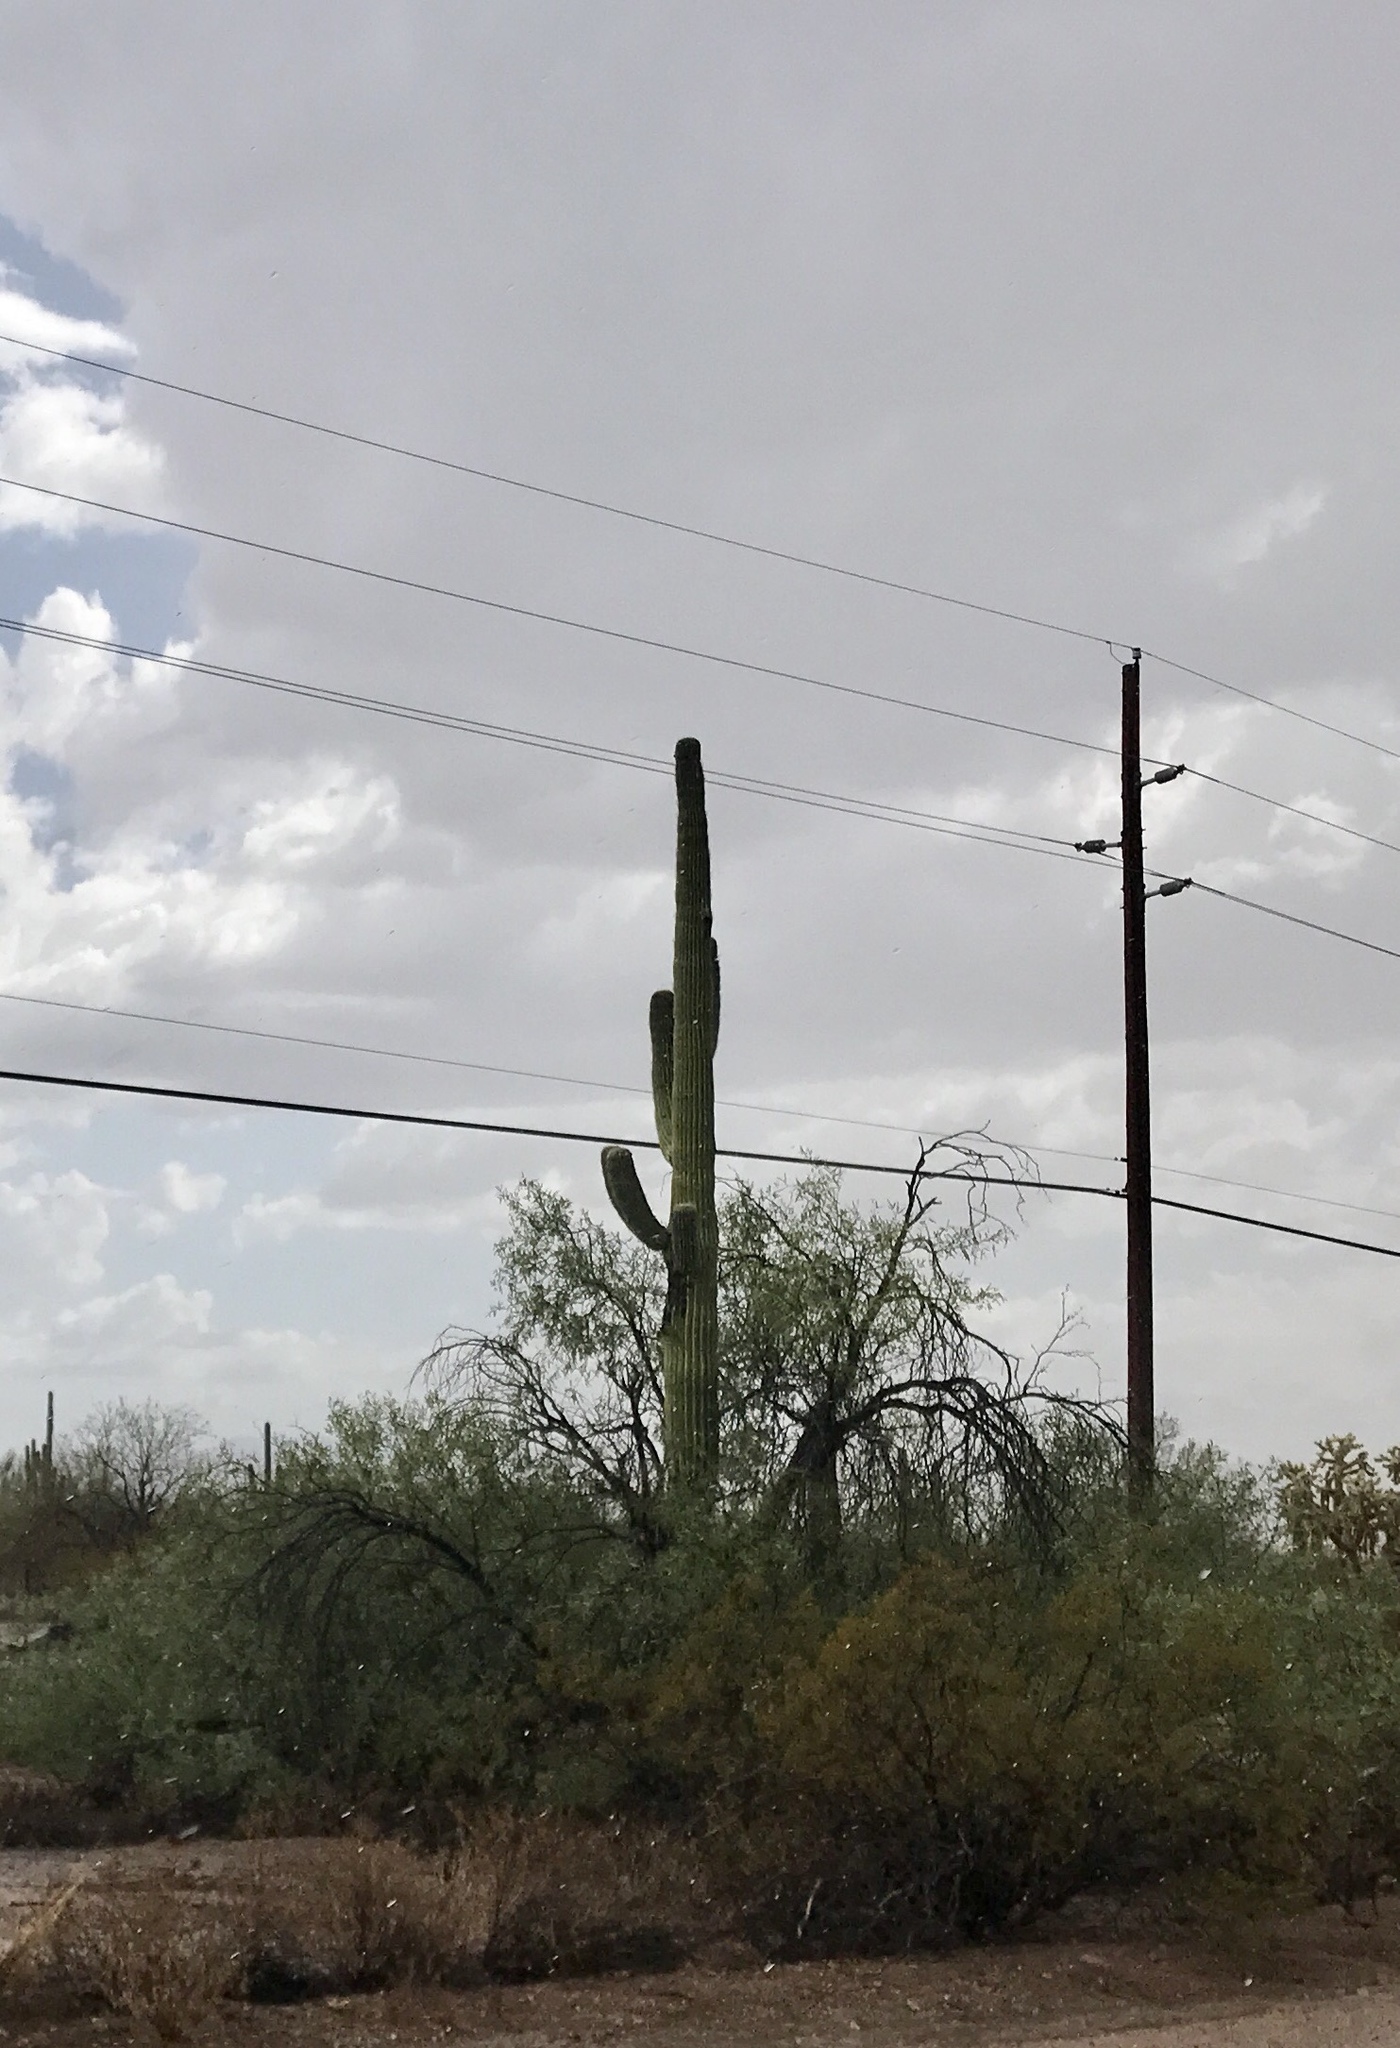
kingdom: Plantae
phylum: Tracheophyta
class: Magnoliopsida
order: Caryophyllales
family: Cactaceae
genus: Carnegiea
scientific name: Carnegiea gigantea
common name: Saguaro
